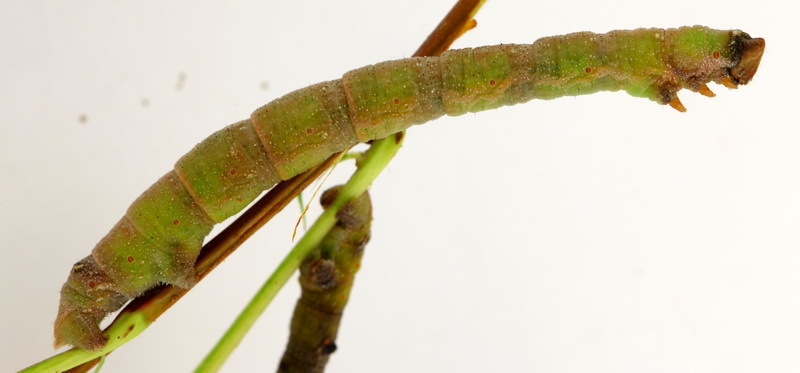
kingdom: Animalia
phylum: Arthropoda
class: Insecta
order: Lepidoptera
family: Geometridae
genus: Biston
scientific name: Biston betularia
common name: Peppered moth
